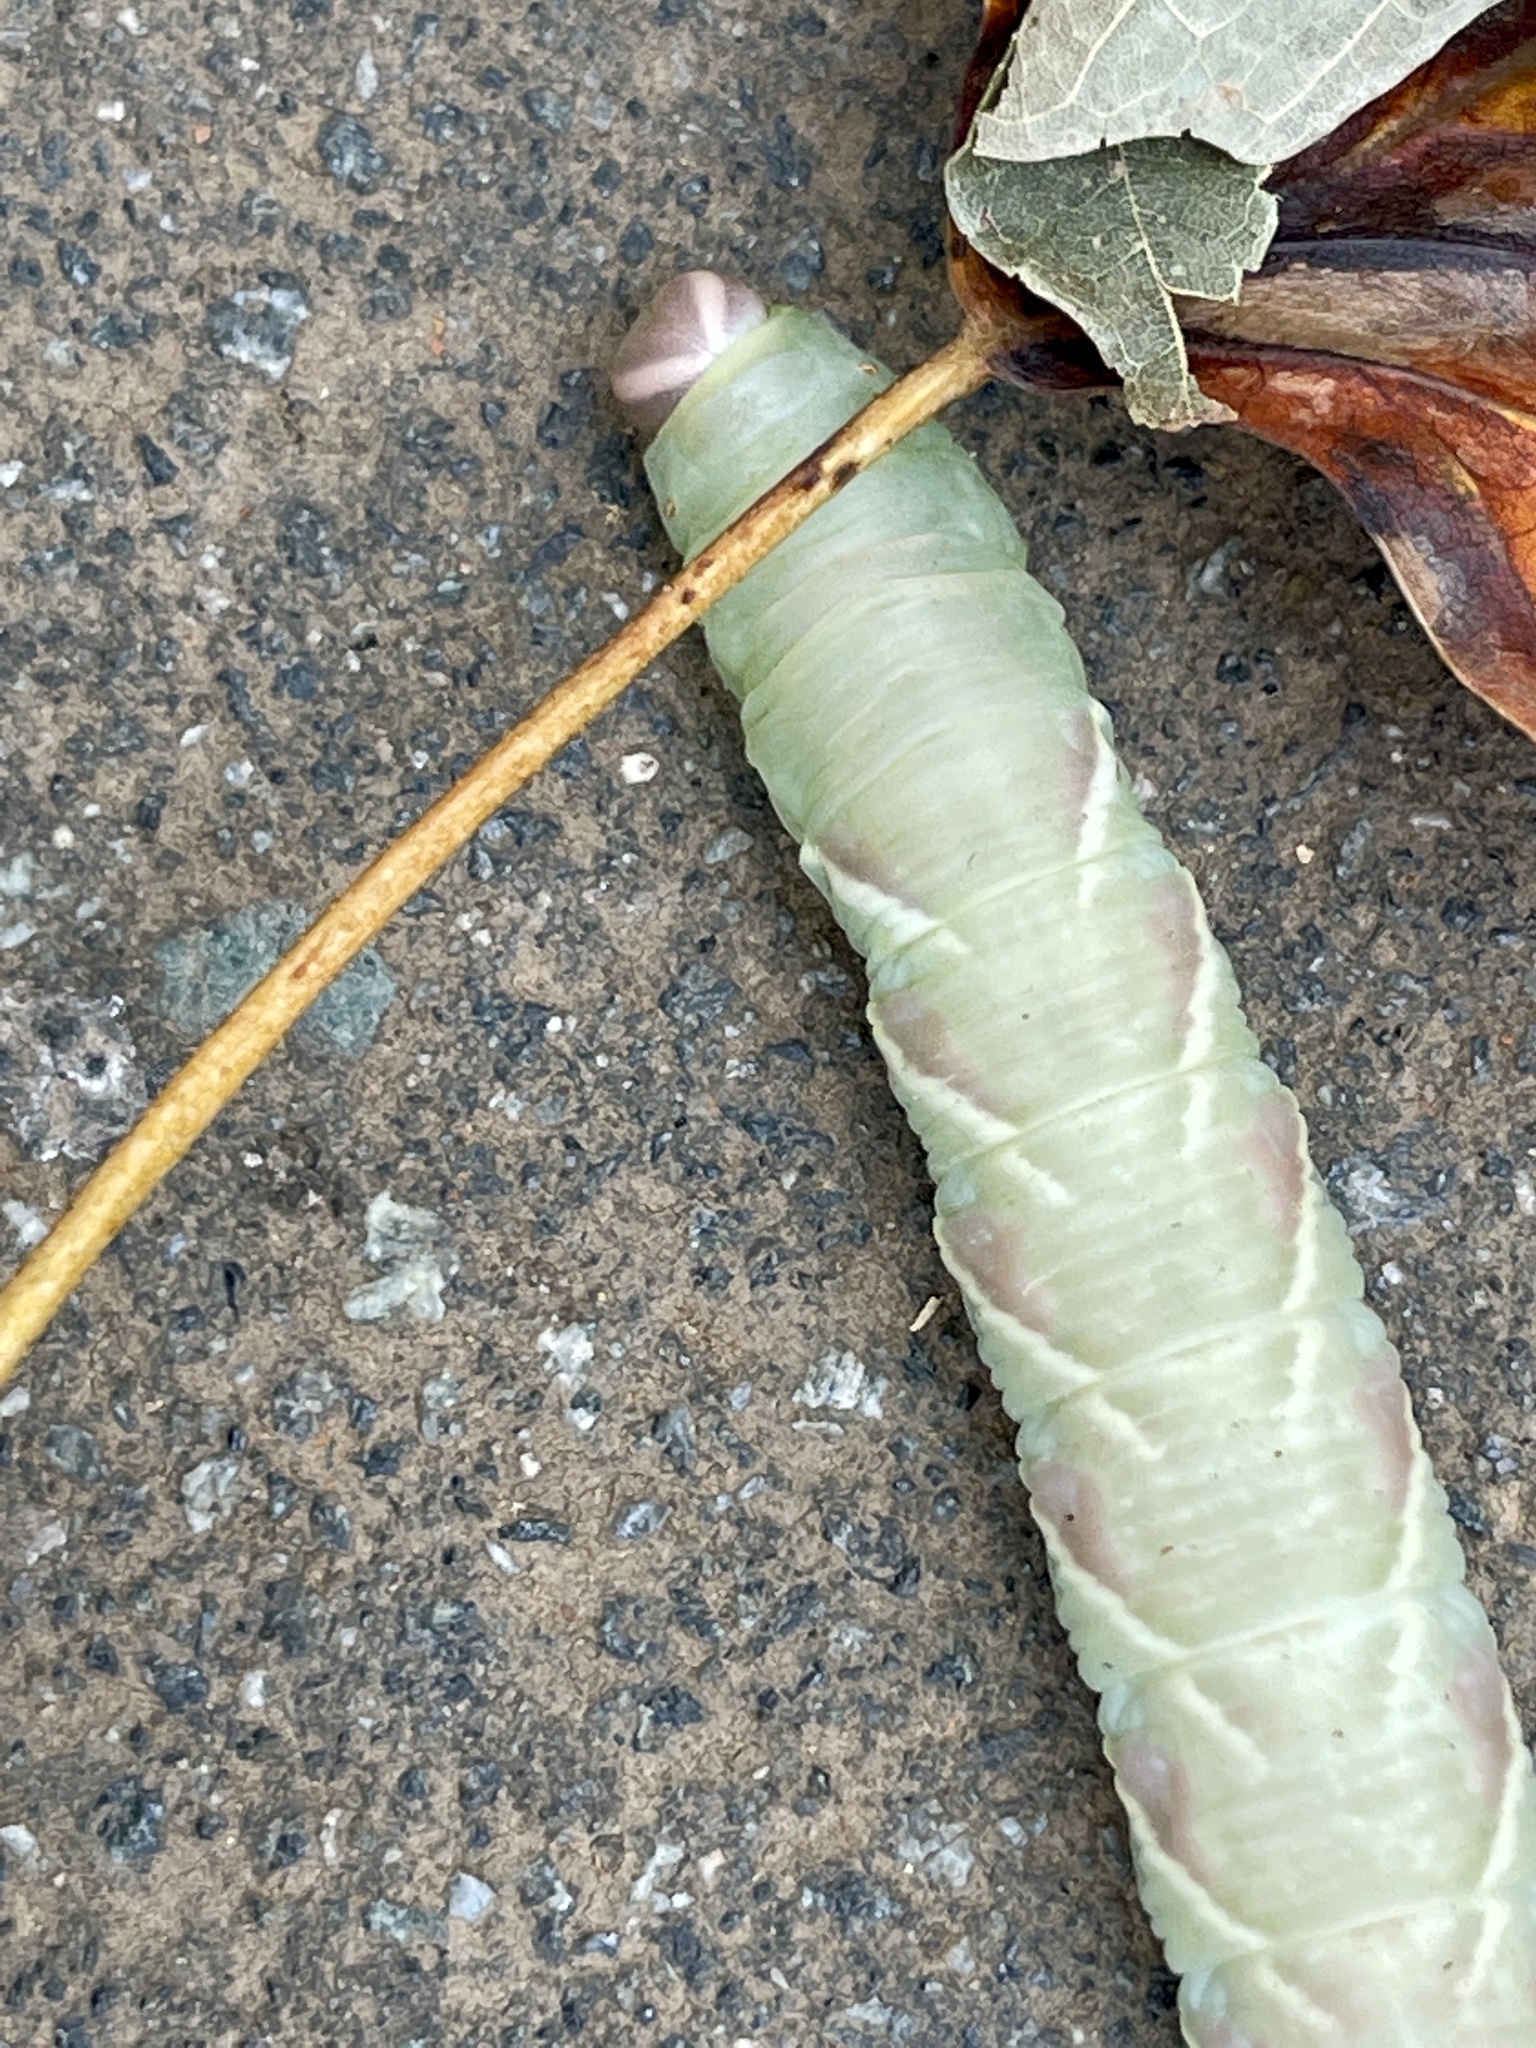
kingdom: Animalia
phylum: Arthropoda
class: Insecta
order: Lepidoptera
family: Sphingidae
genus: Ceratomia
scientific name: Ceratomia undulosa
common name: Waved sphinx
